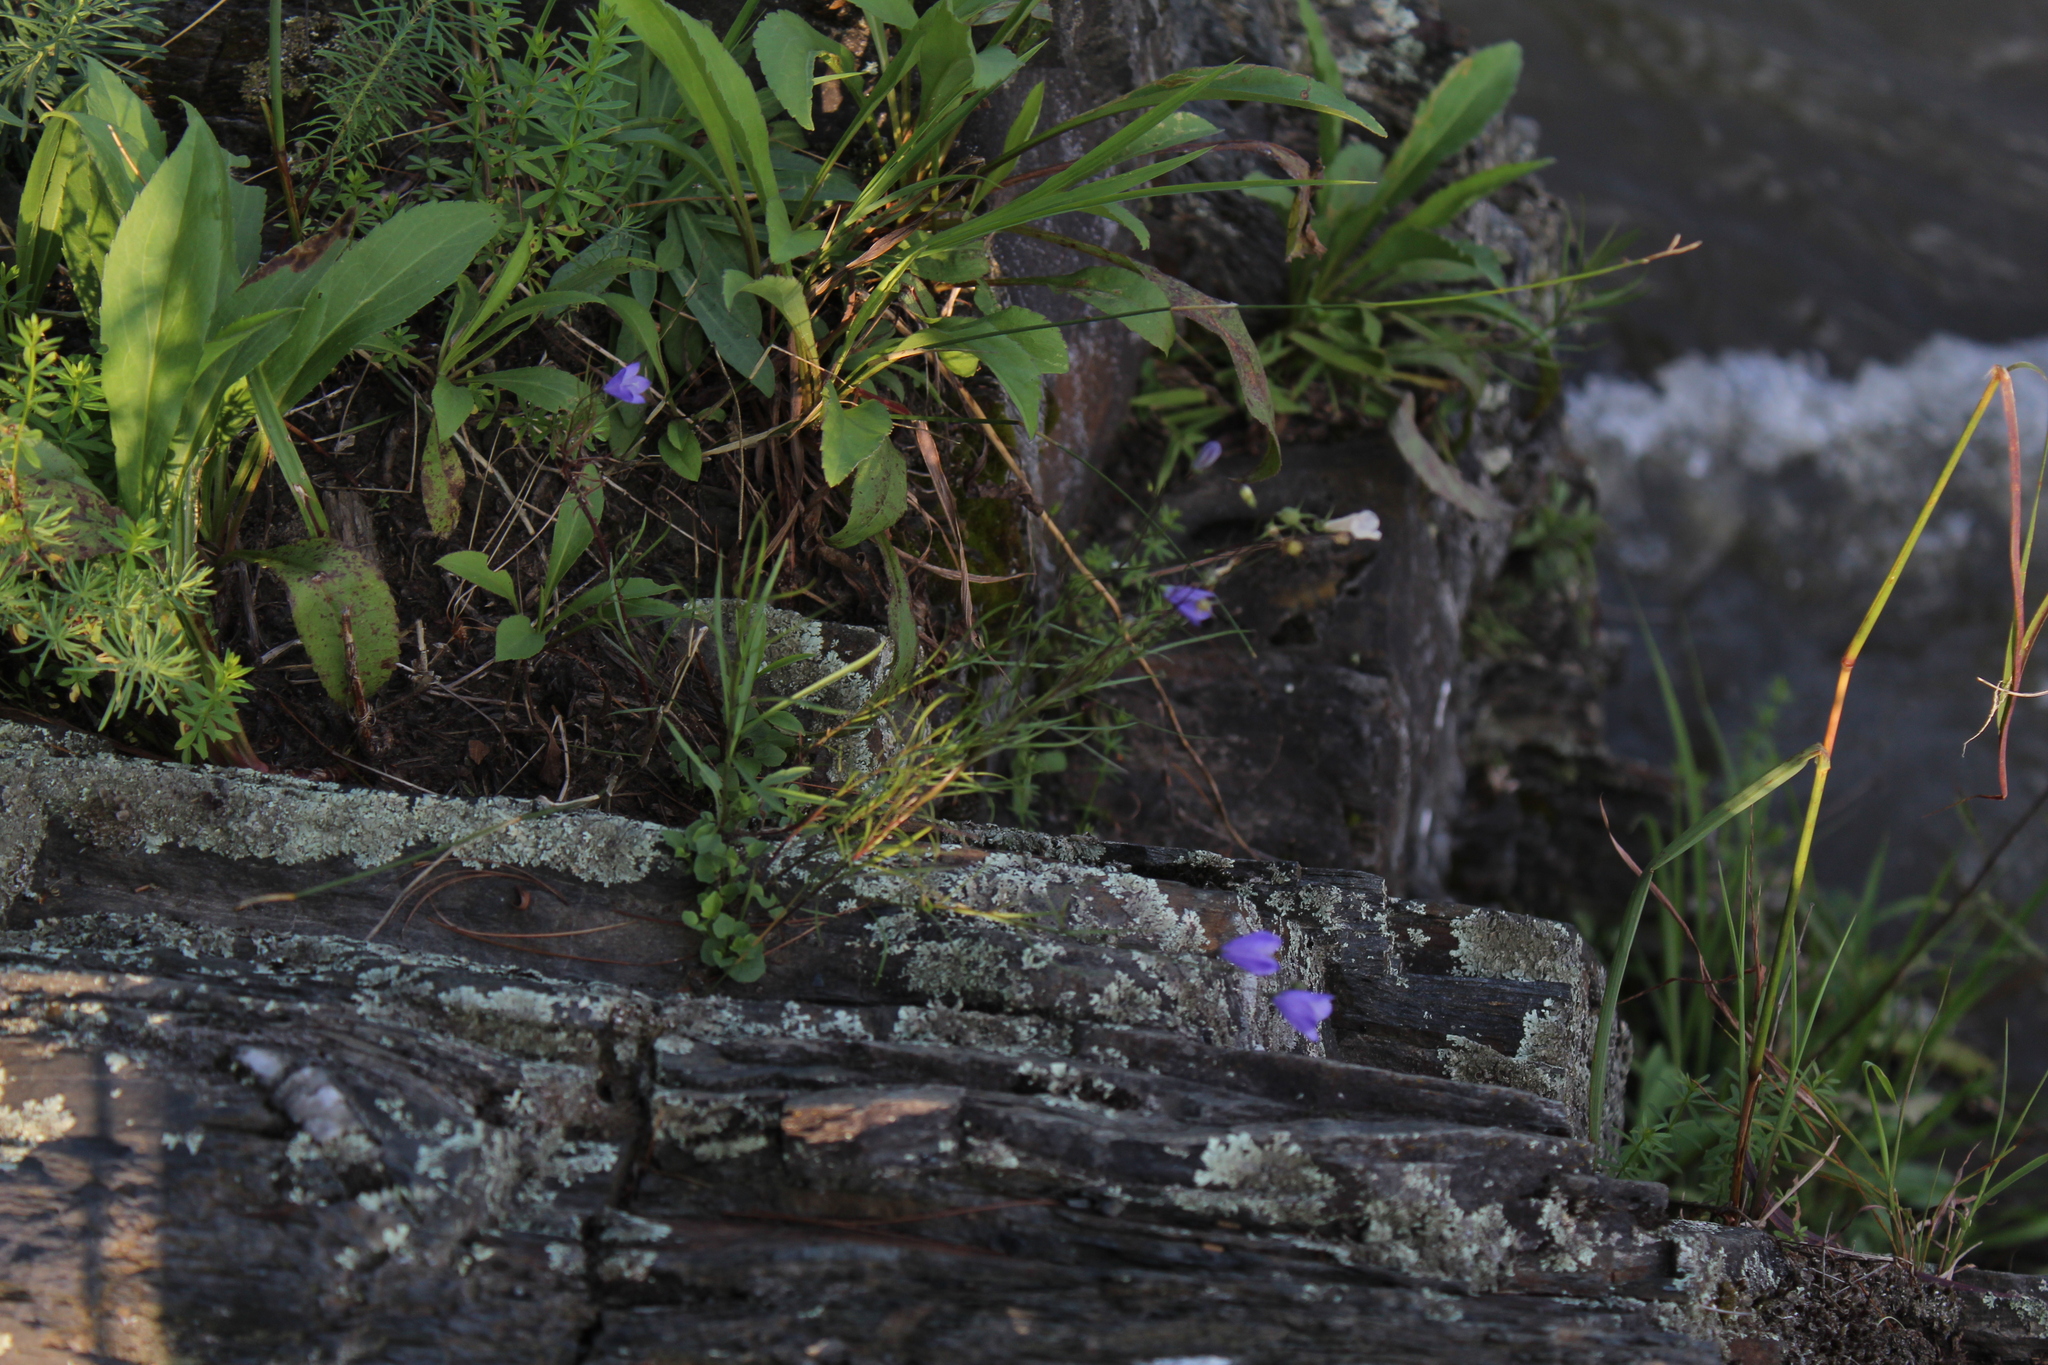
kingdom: Plantae
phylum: Tracheophyta
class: Magnoliopsida
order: Asterales
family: Campanulaceae
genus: Campanula
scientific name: Campanula intercedens
